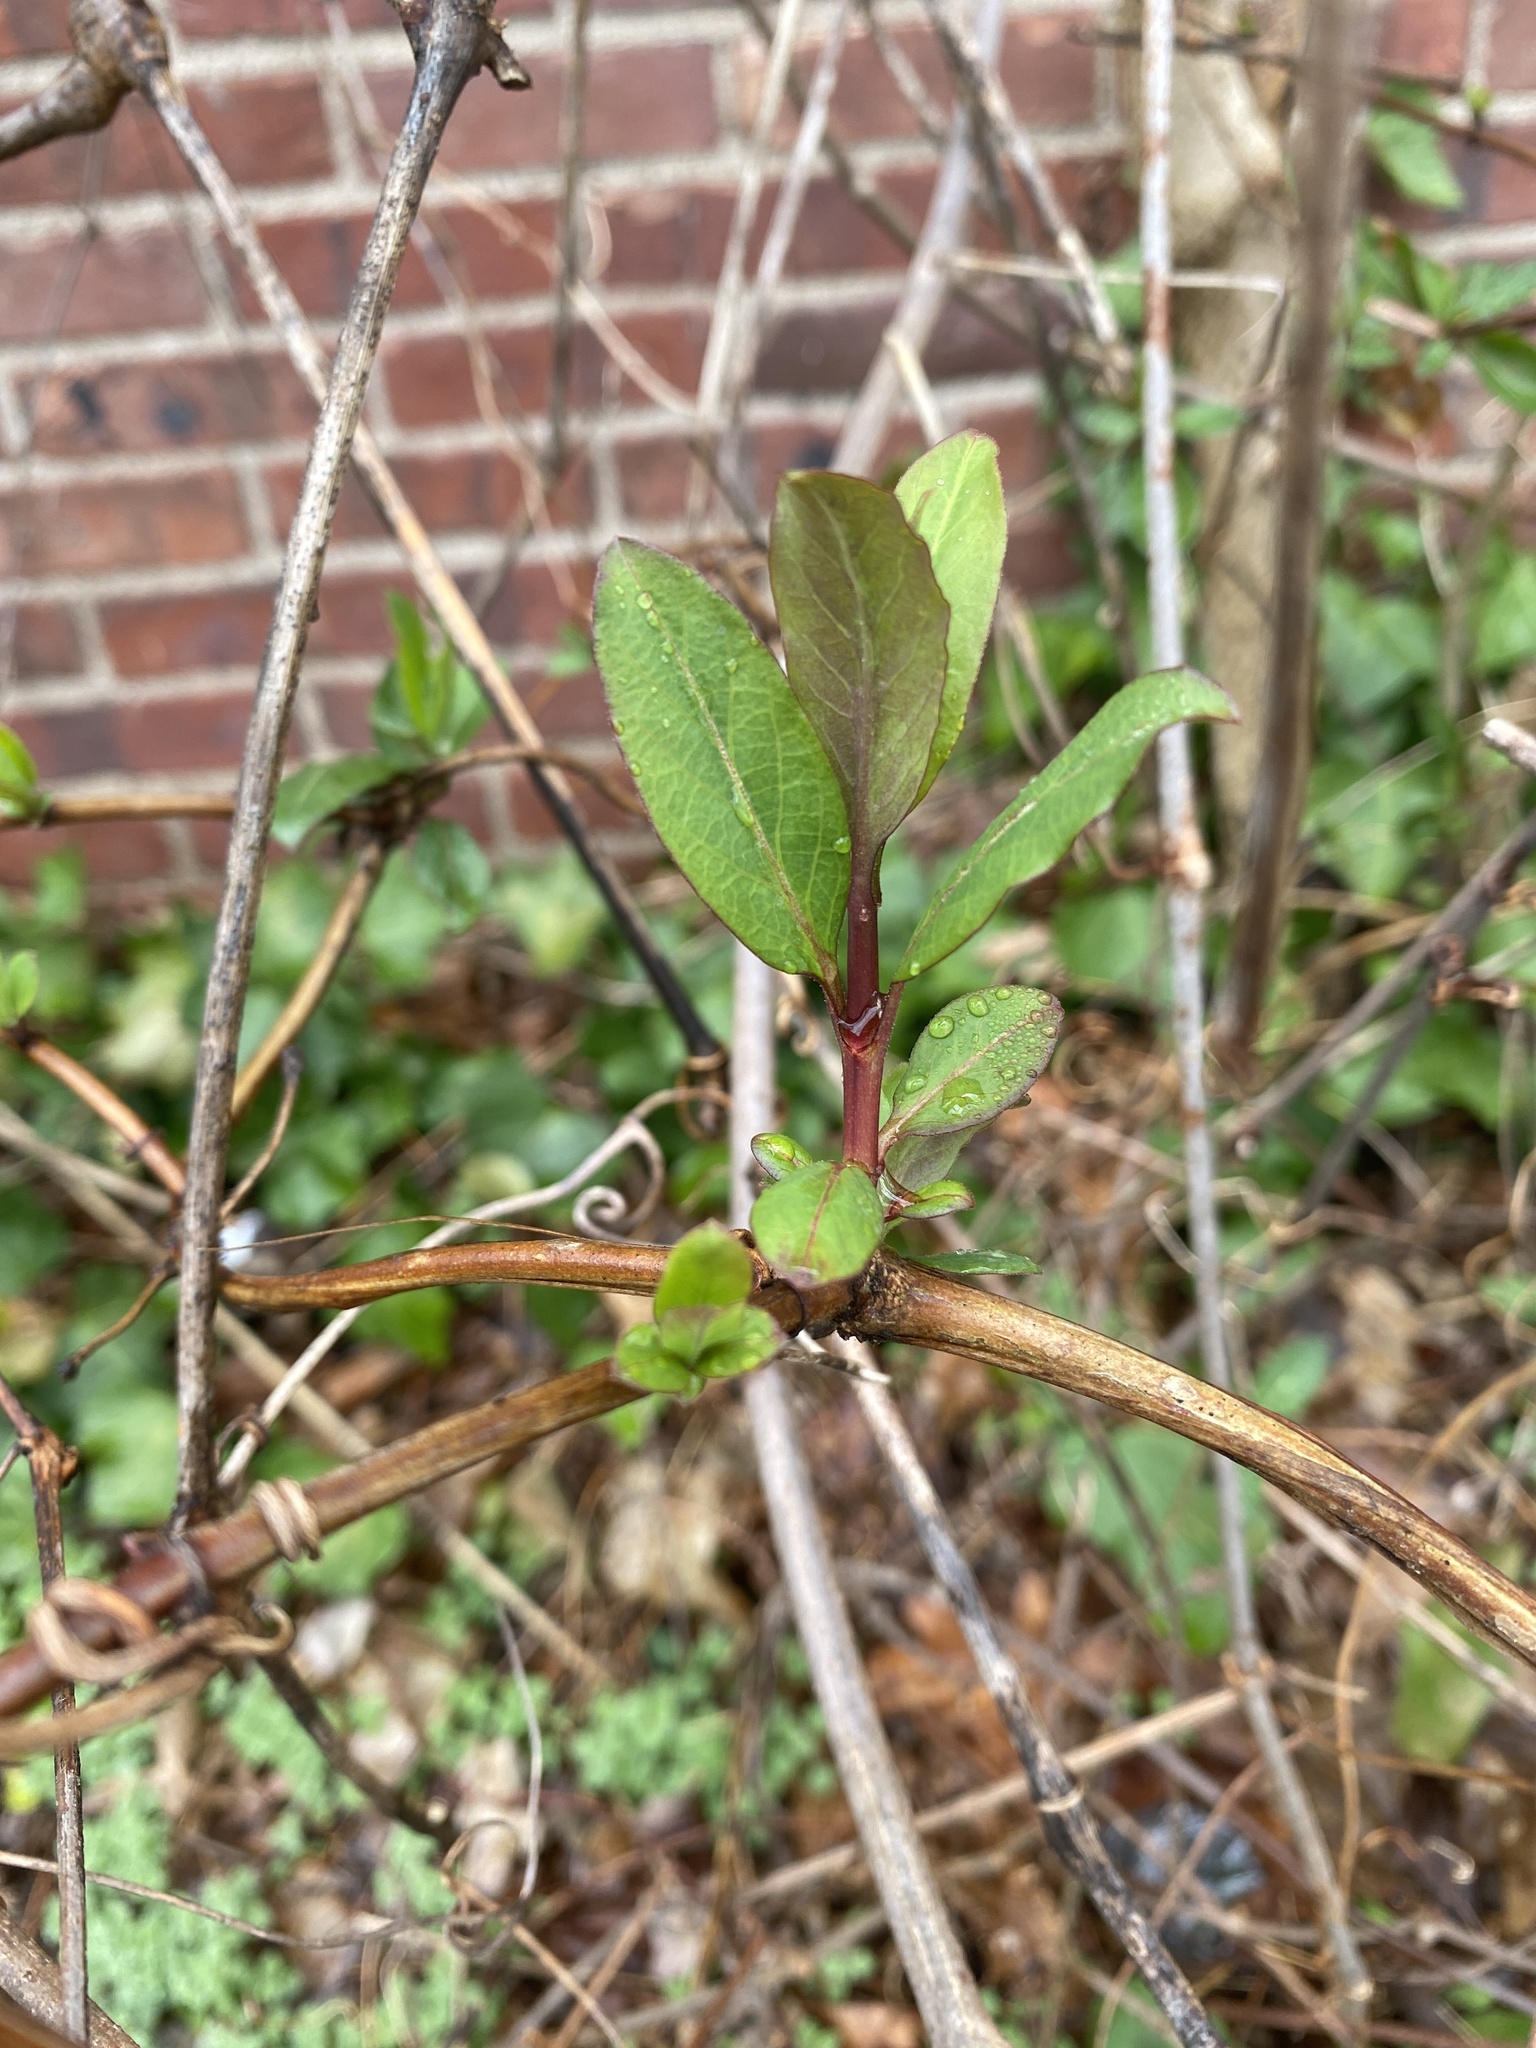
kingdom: Plantae
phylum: Tracheophyta
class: Magnoliopsida
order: Dipsacales
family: Caprifoliaceae
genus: Lonicera
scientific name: Lonicera japonica
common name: Japanese honeysuckle
